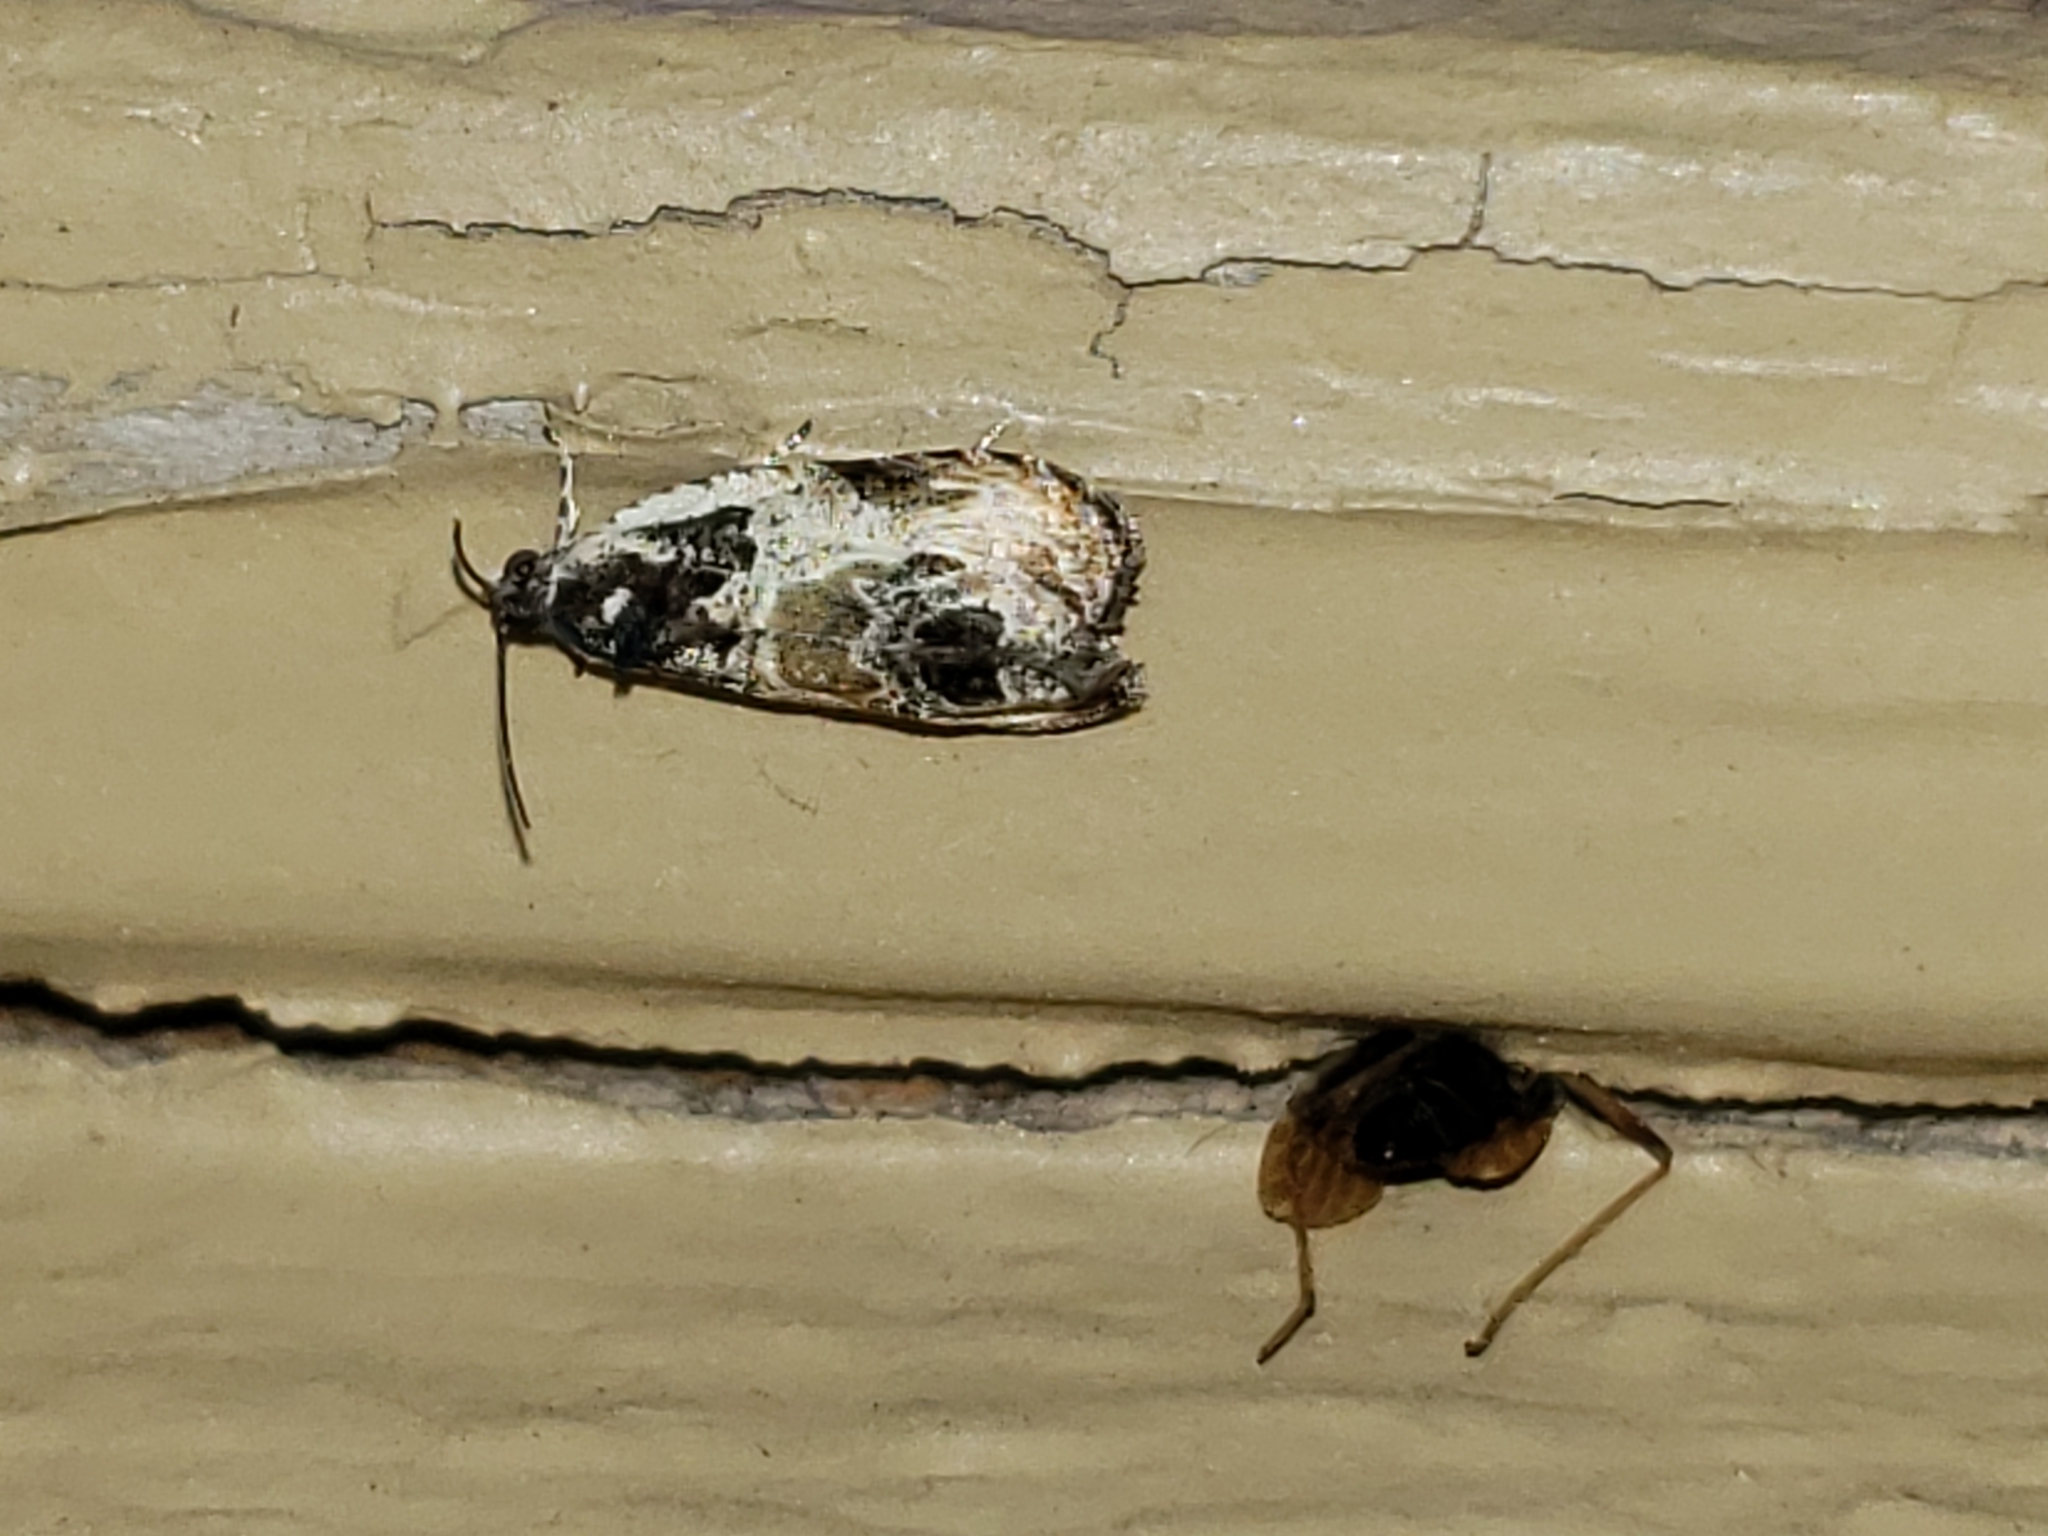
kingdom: Animalia
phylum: Arthropoda
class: Insecta
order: Lepidoptera
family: Tortricidae
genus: Olethreutes
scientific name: Olethreutes griseoalbana
